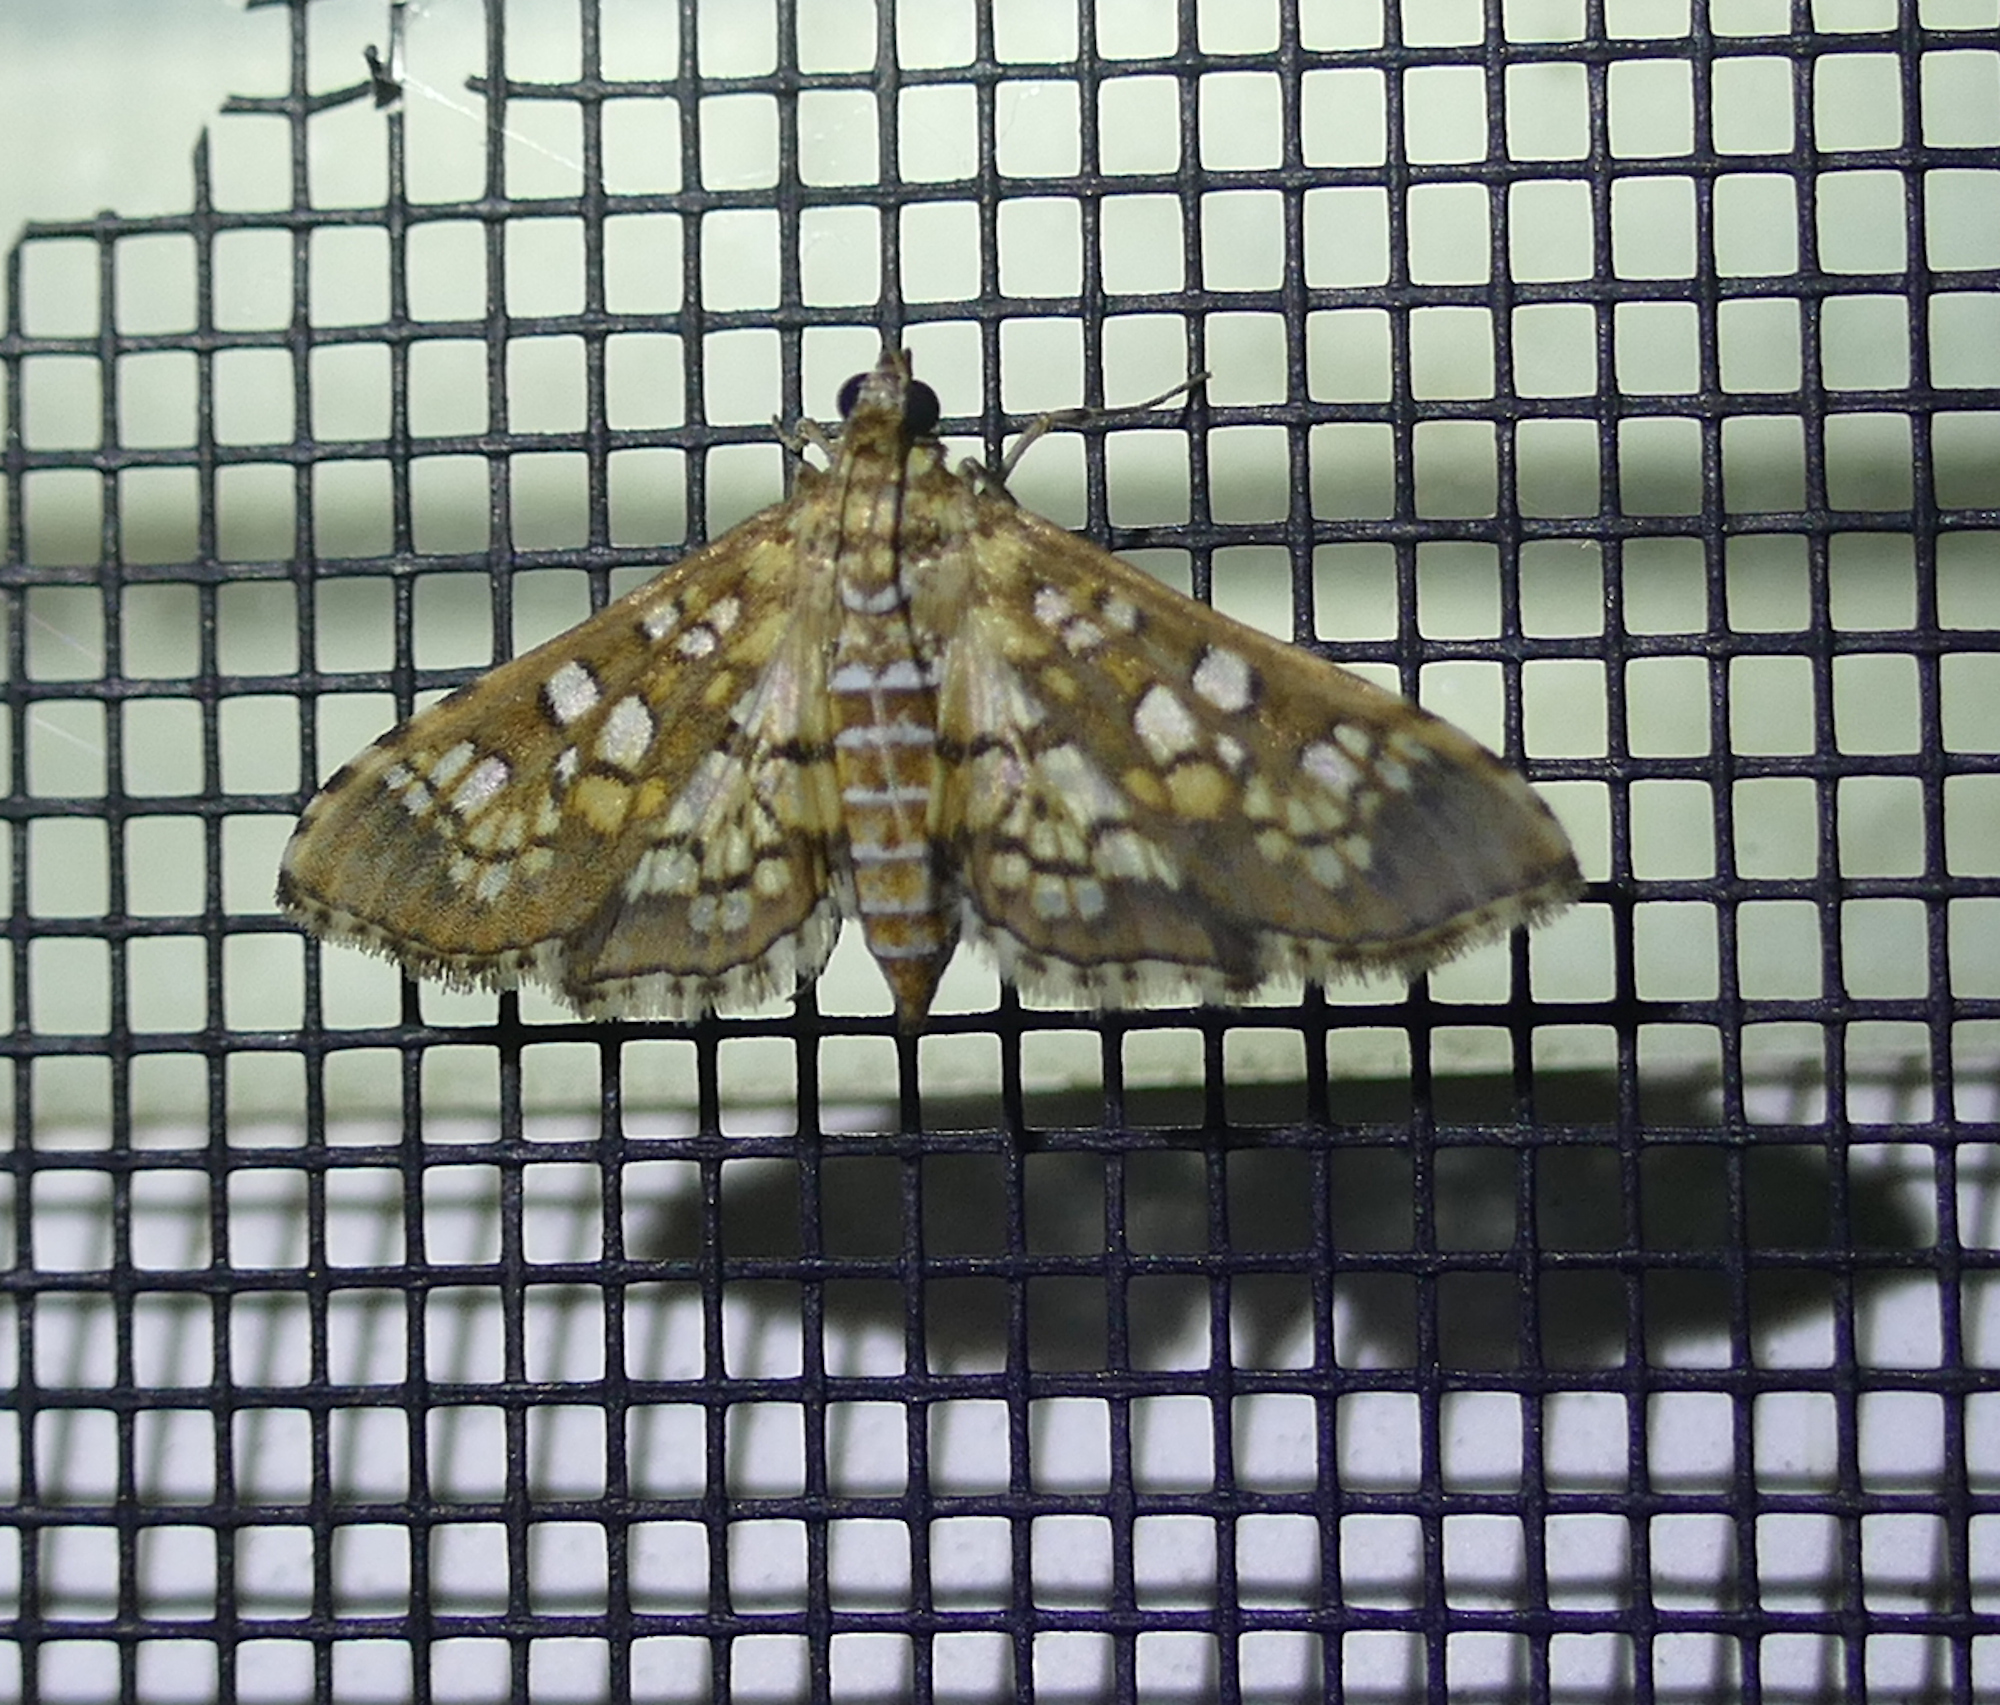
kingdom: Animalia
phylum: Arthropoda
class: Insecta
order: Lepidoptera
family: Crambidae
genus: Samea
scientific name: Samea ecclesialis
